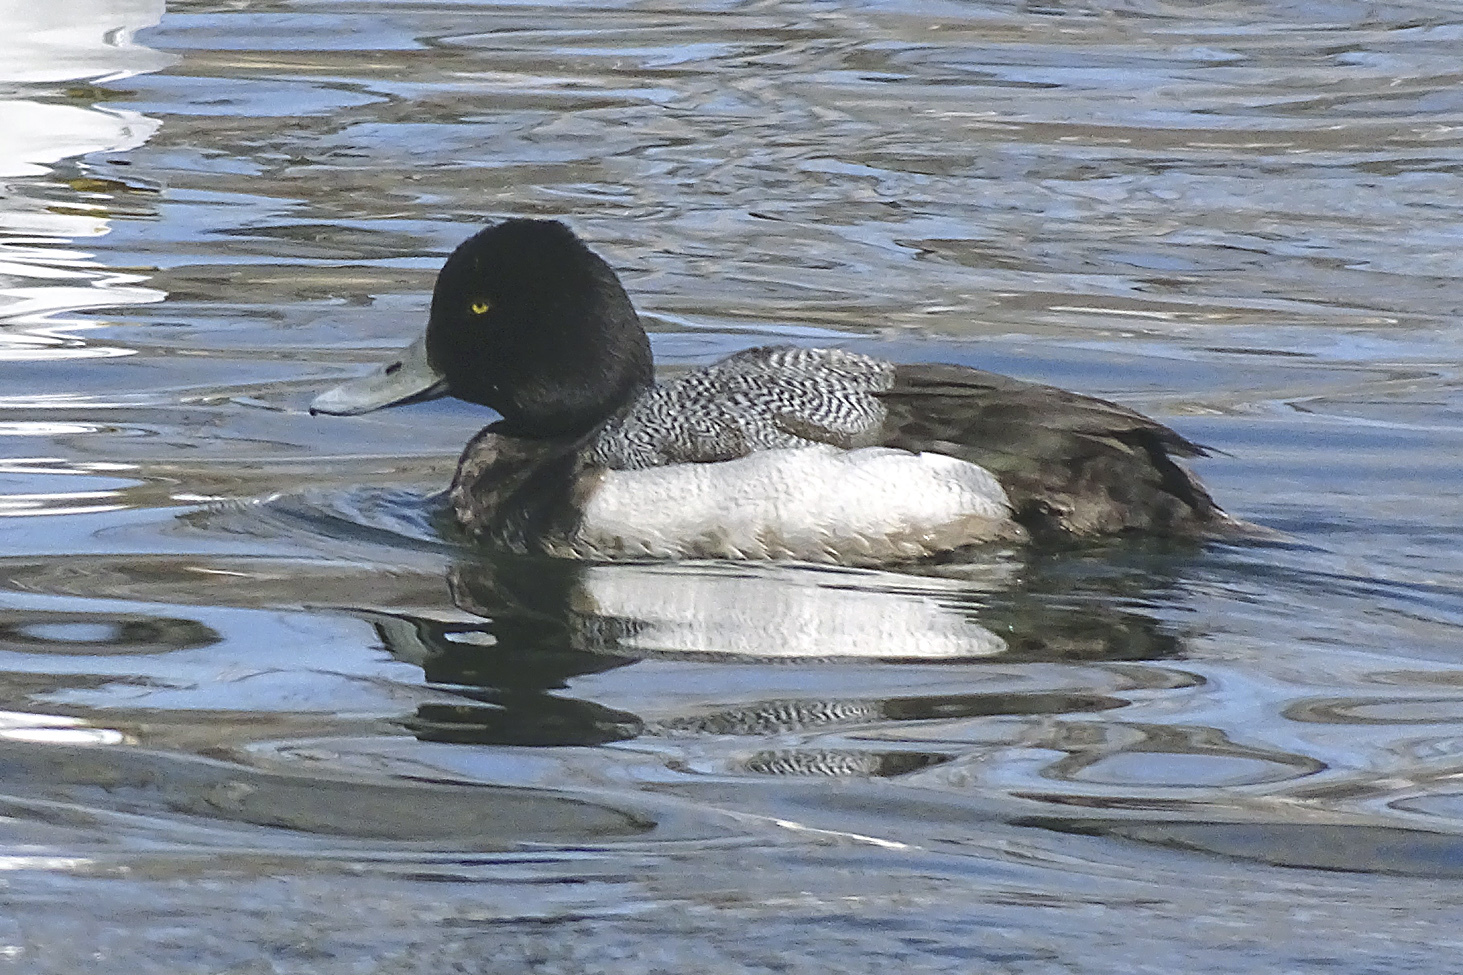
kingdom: Animalia
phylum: Chordata
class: Aves
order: Anseriformes
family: Anatidae
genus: Aythya
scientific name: Aythya affinis
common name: Lesser scaup
